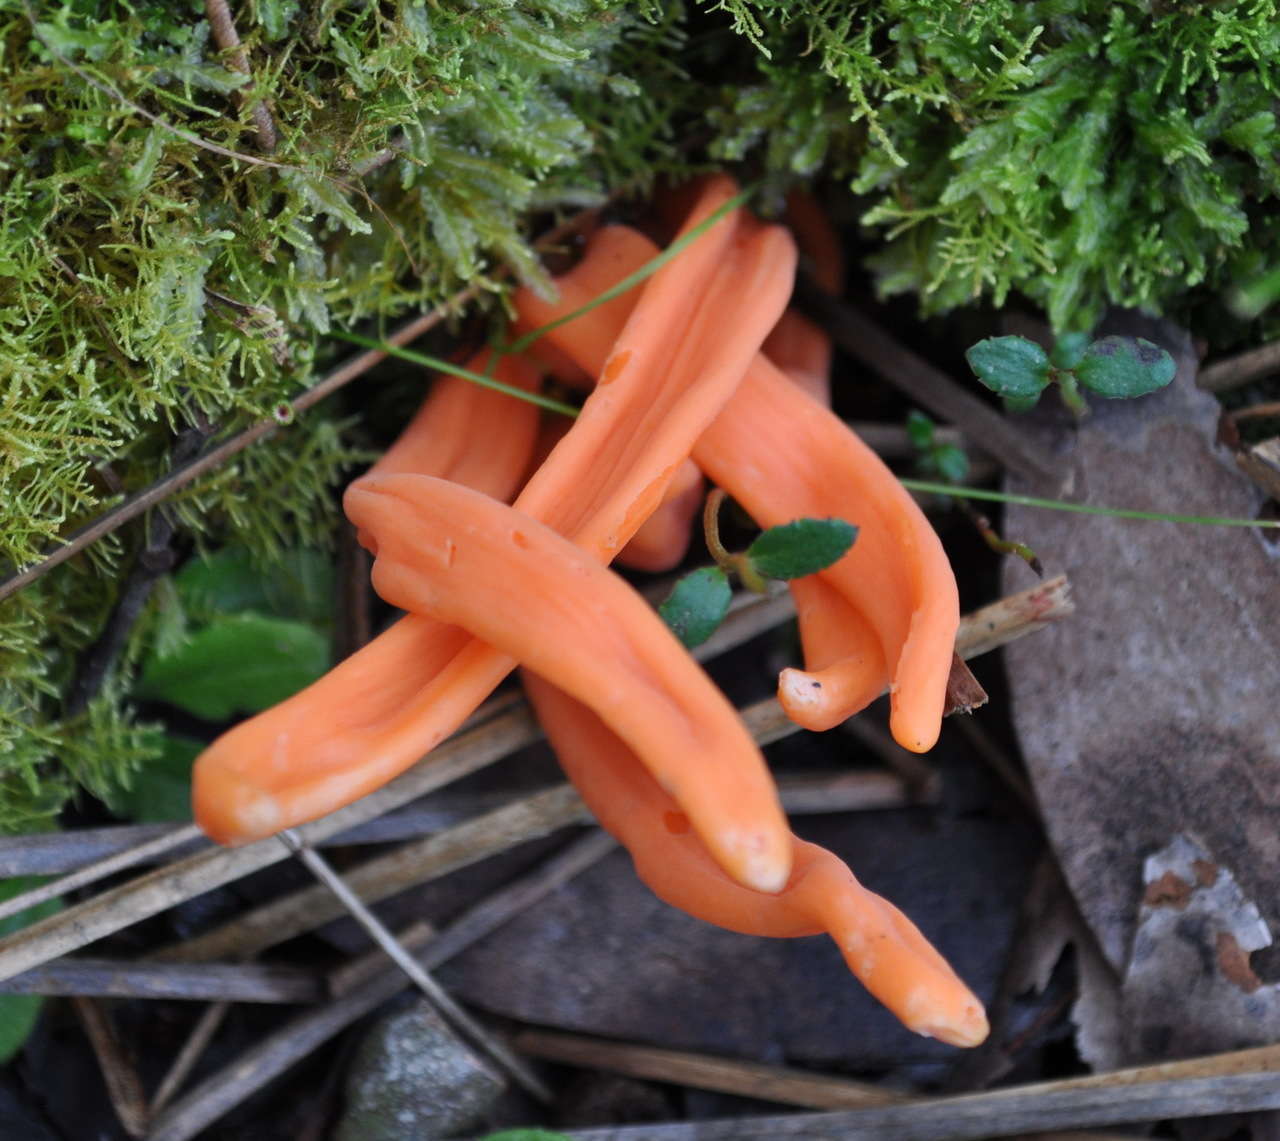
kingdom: Fungi
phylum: Basidiomycota
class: Agaricomycetes
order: Agaricales
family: Clavariaceae
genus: Clavulinopsis
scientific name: Clavulinopsis sulcata
